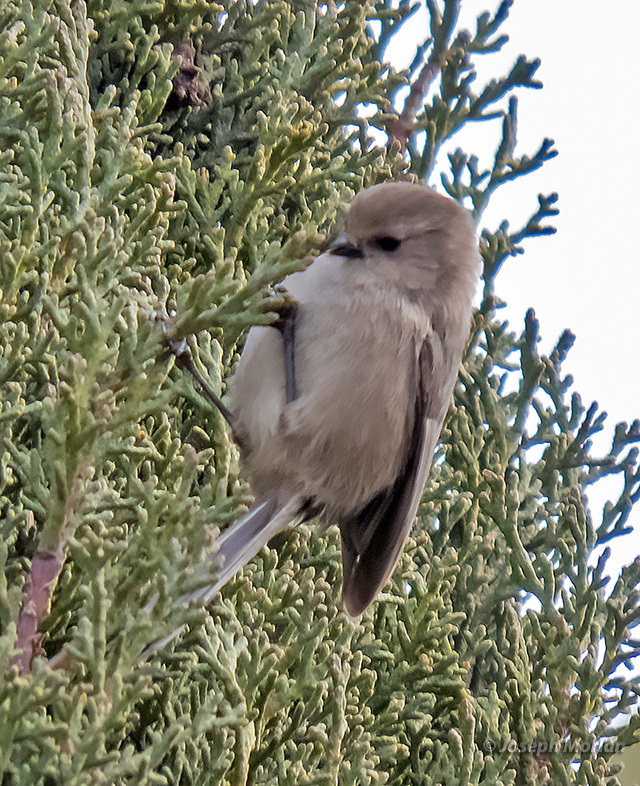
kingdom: Animalia
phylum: Chordata
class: Aves
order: Passeriformes
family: Aegithalidae
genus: Psaltriparus
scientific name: Psaltriparus minimus
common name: American bushtit
